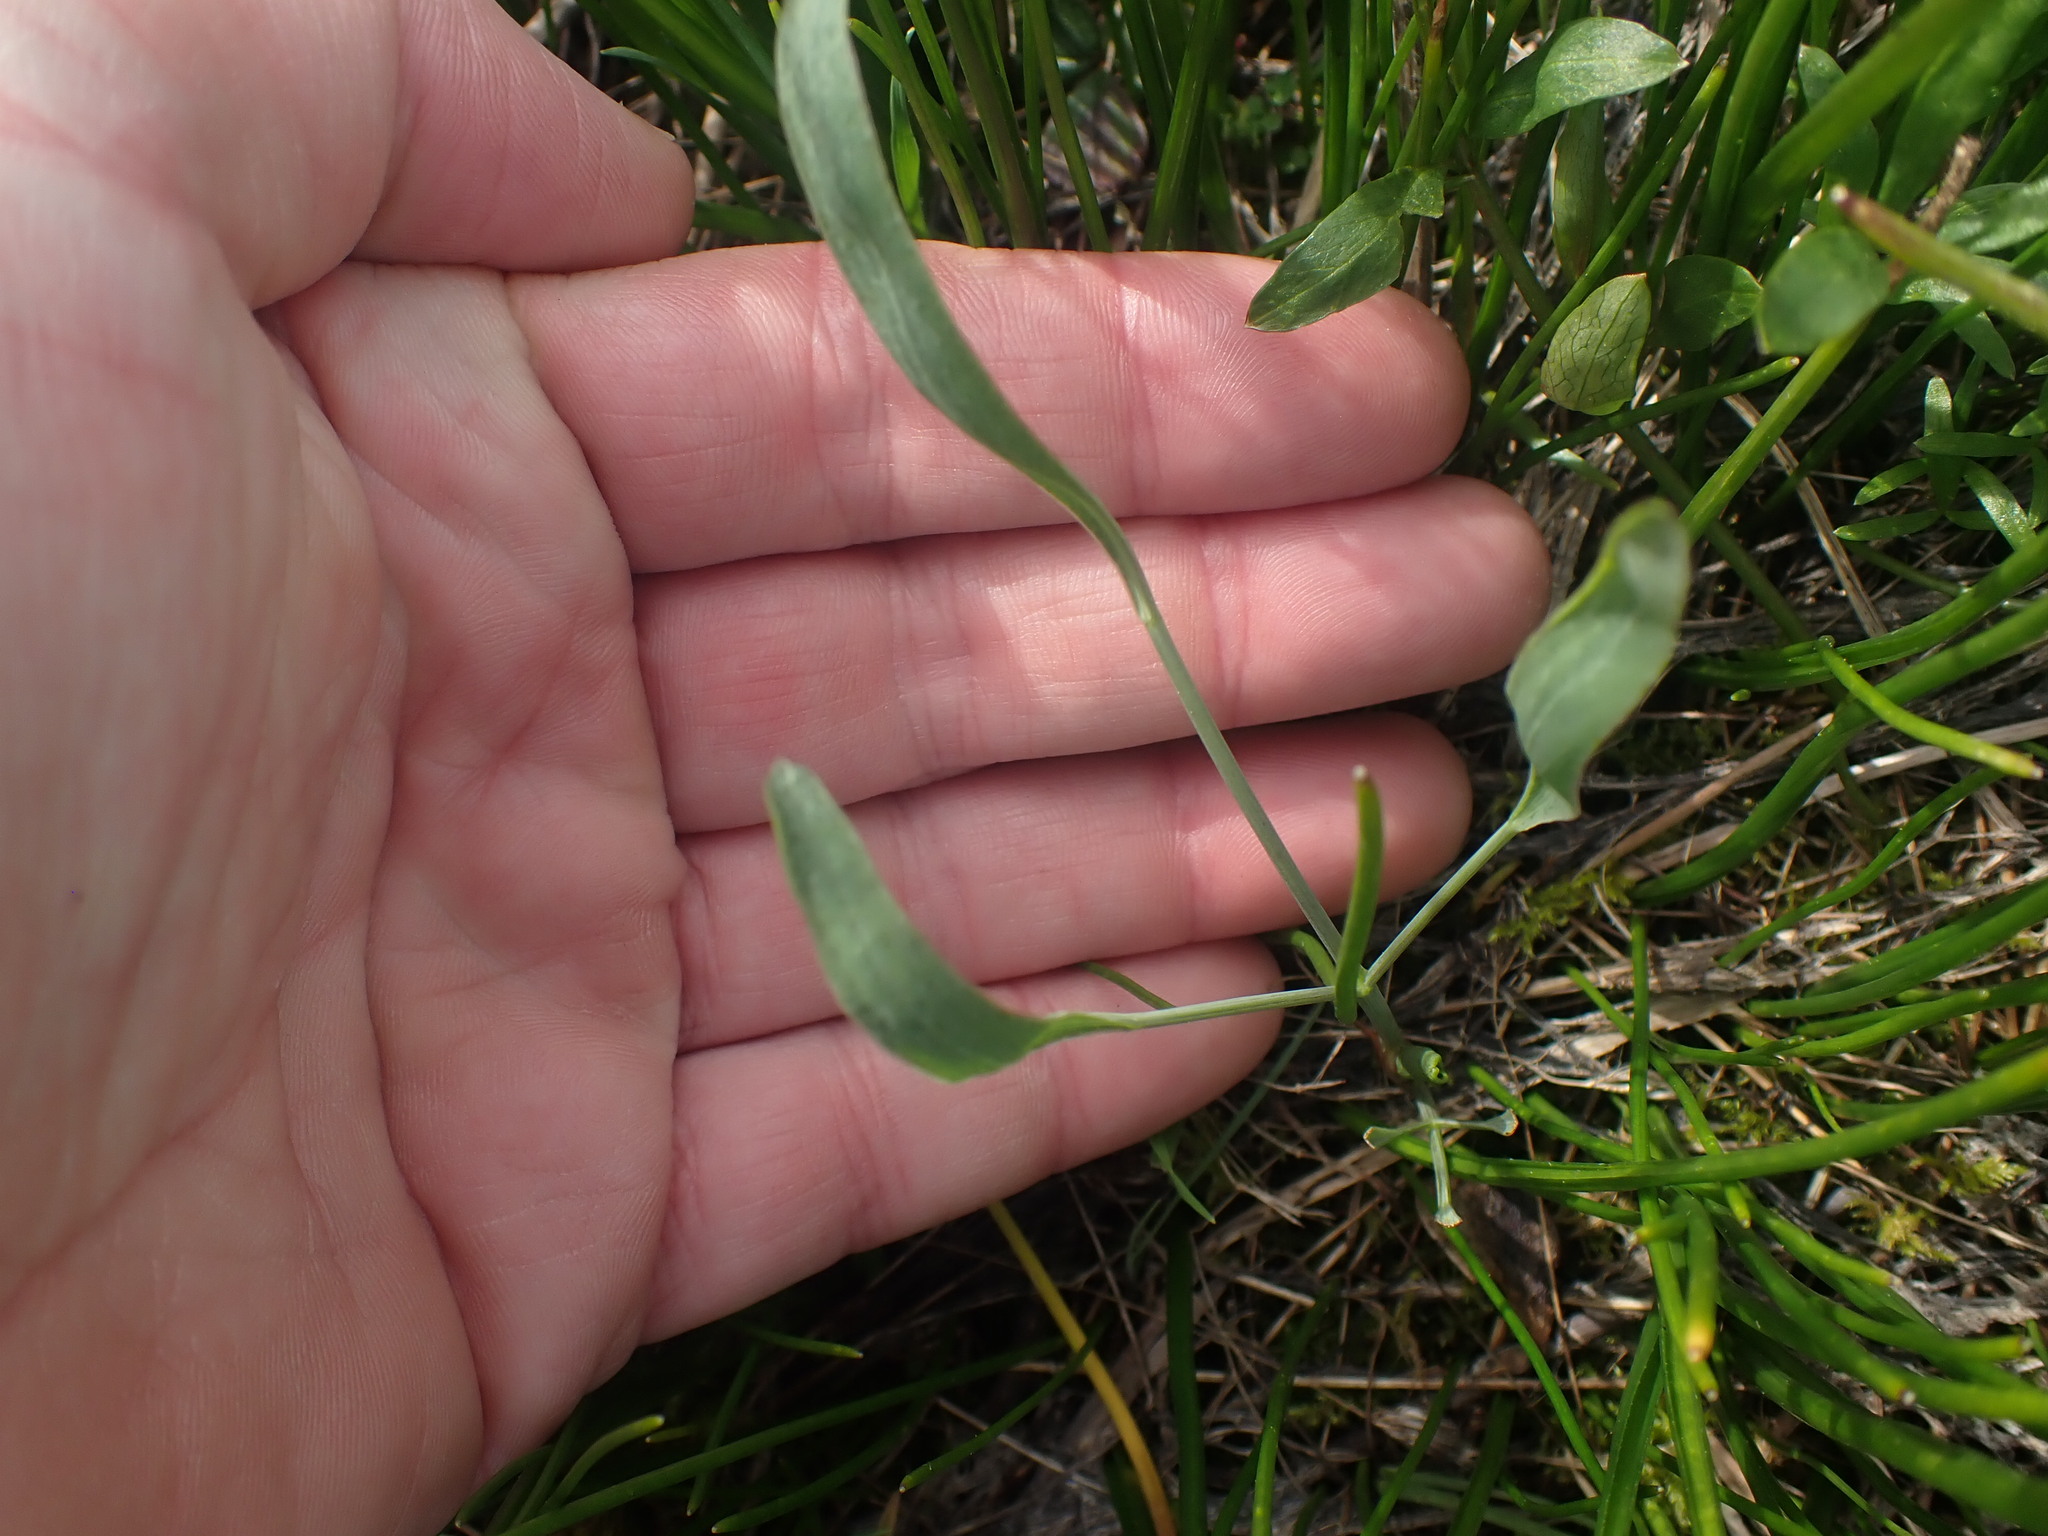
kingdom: Plantae
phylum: Tracheophyta
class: Magnoliopsida
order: Apiales
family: Apiaceae
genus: Lomatium
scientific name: Lomatium nudicaule
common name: Pestle lomatium
